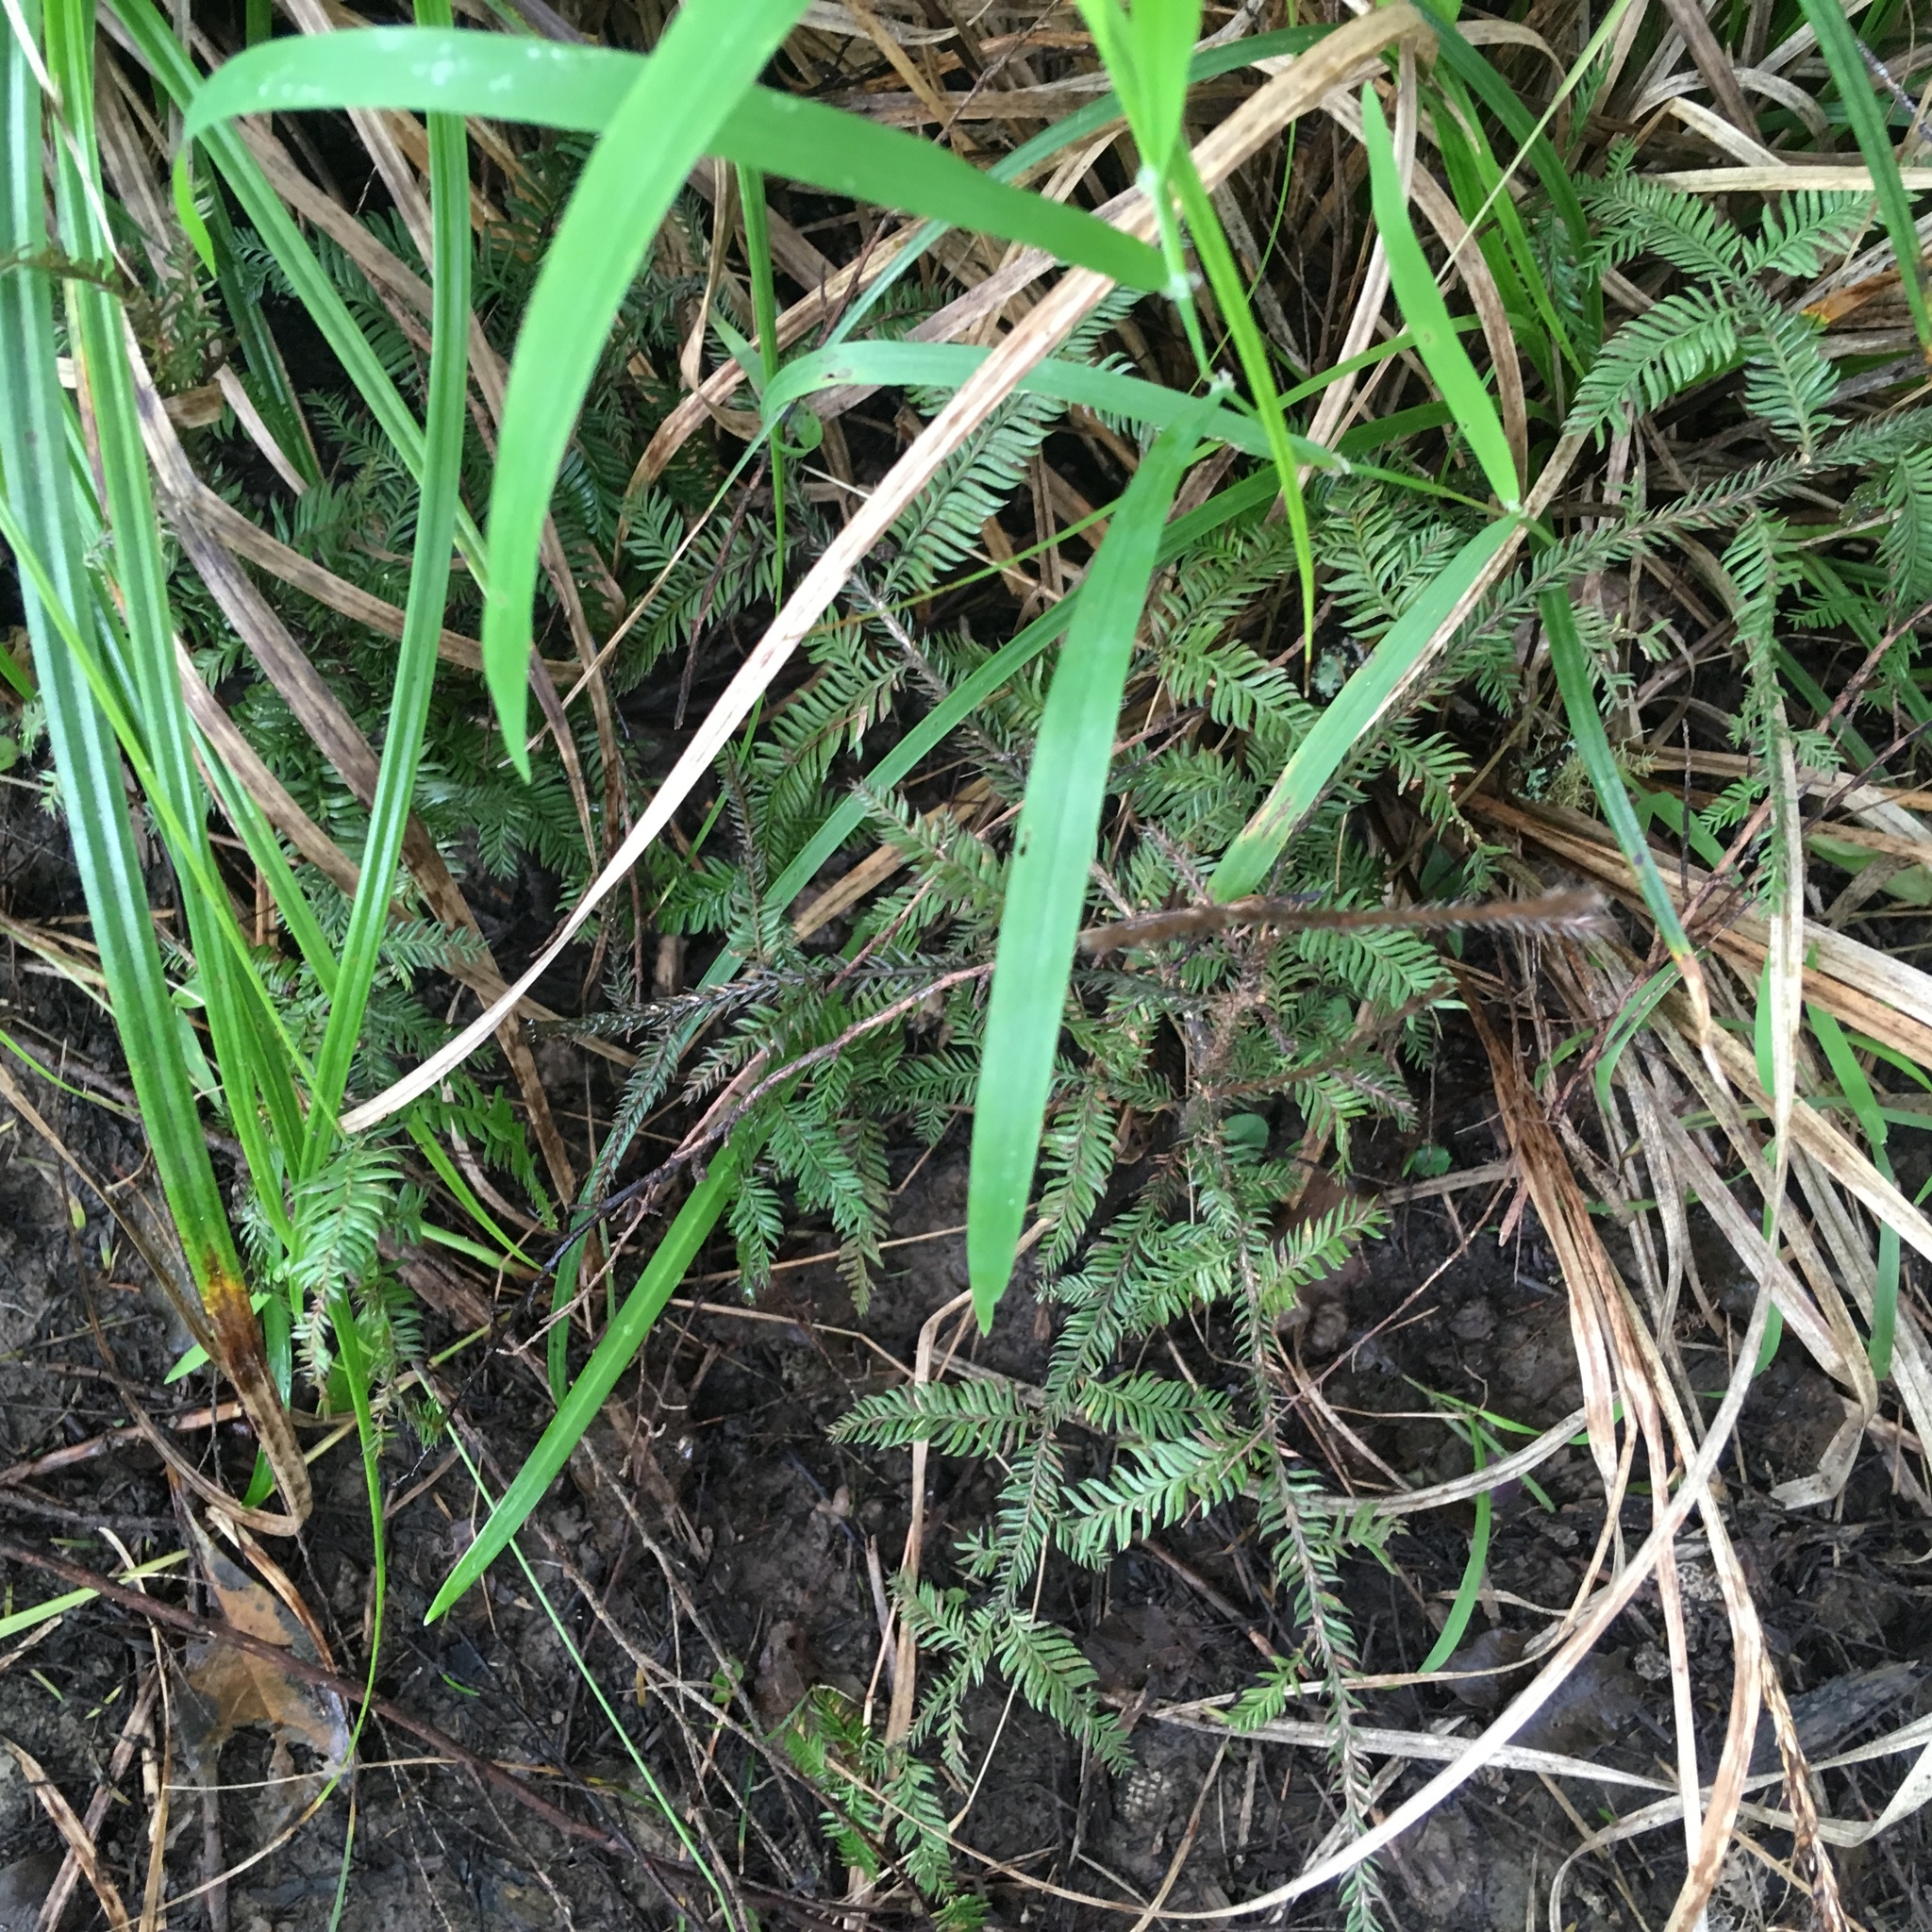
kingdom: Plantae
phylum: Tracheophyta
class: Pinopsida
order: Pinales
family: Podocarpaceae
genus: Dacrycarpus
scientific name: Dacrycarpus dacrydioides
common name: White pine
